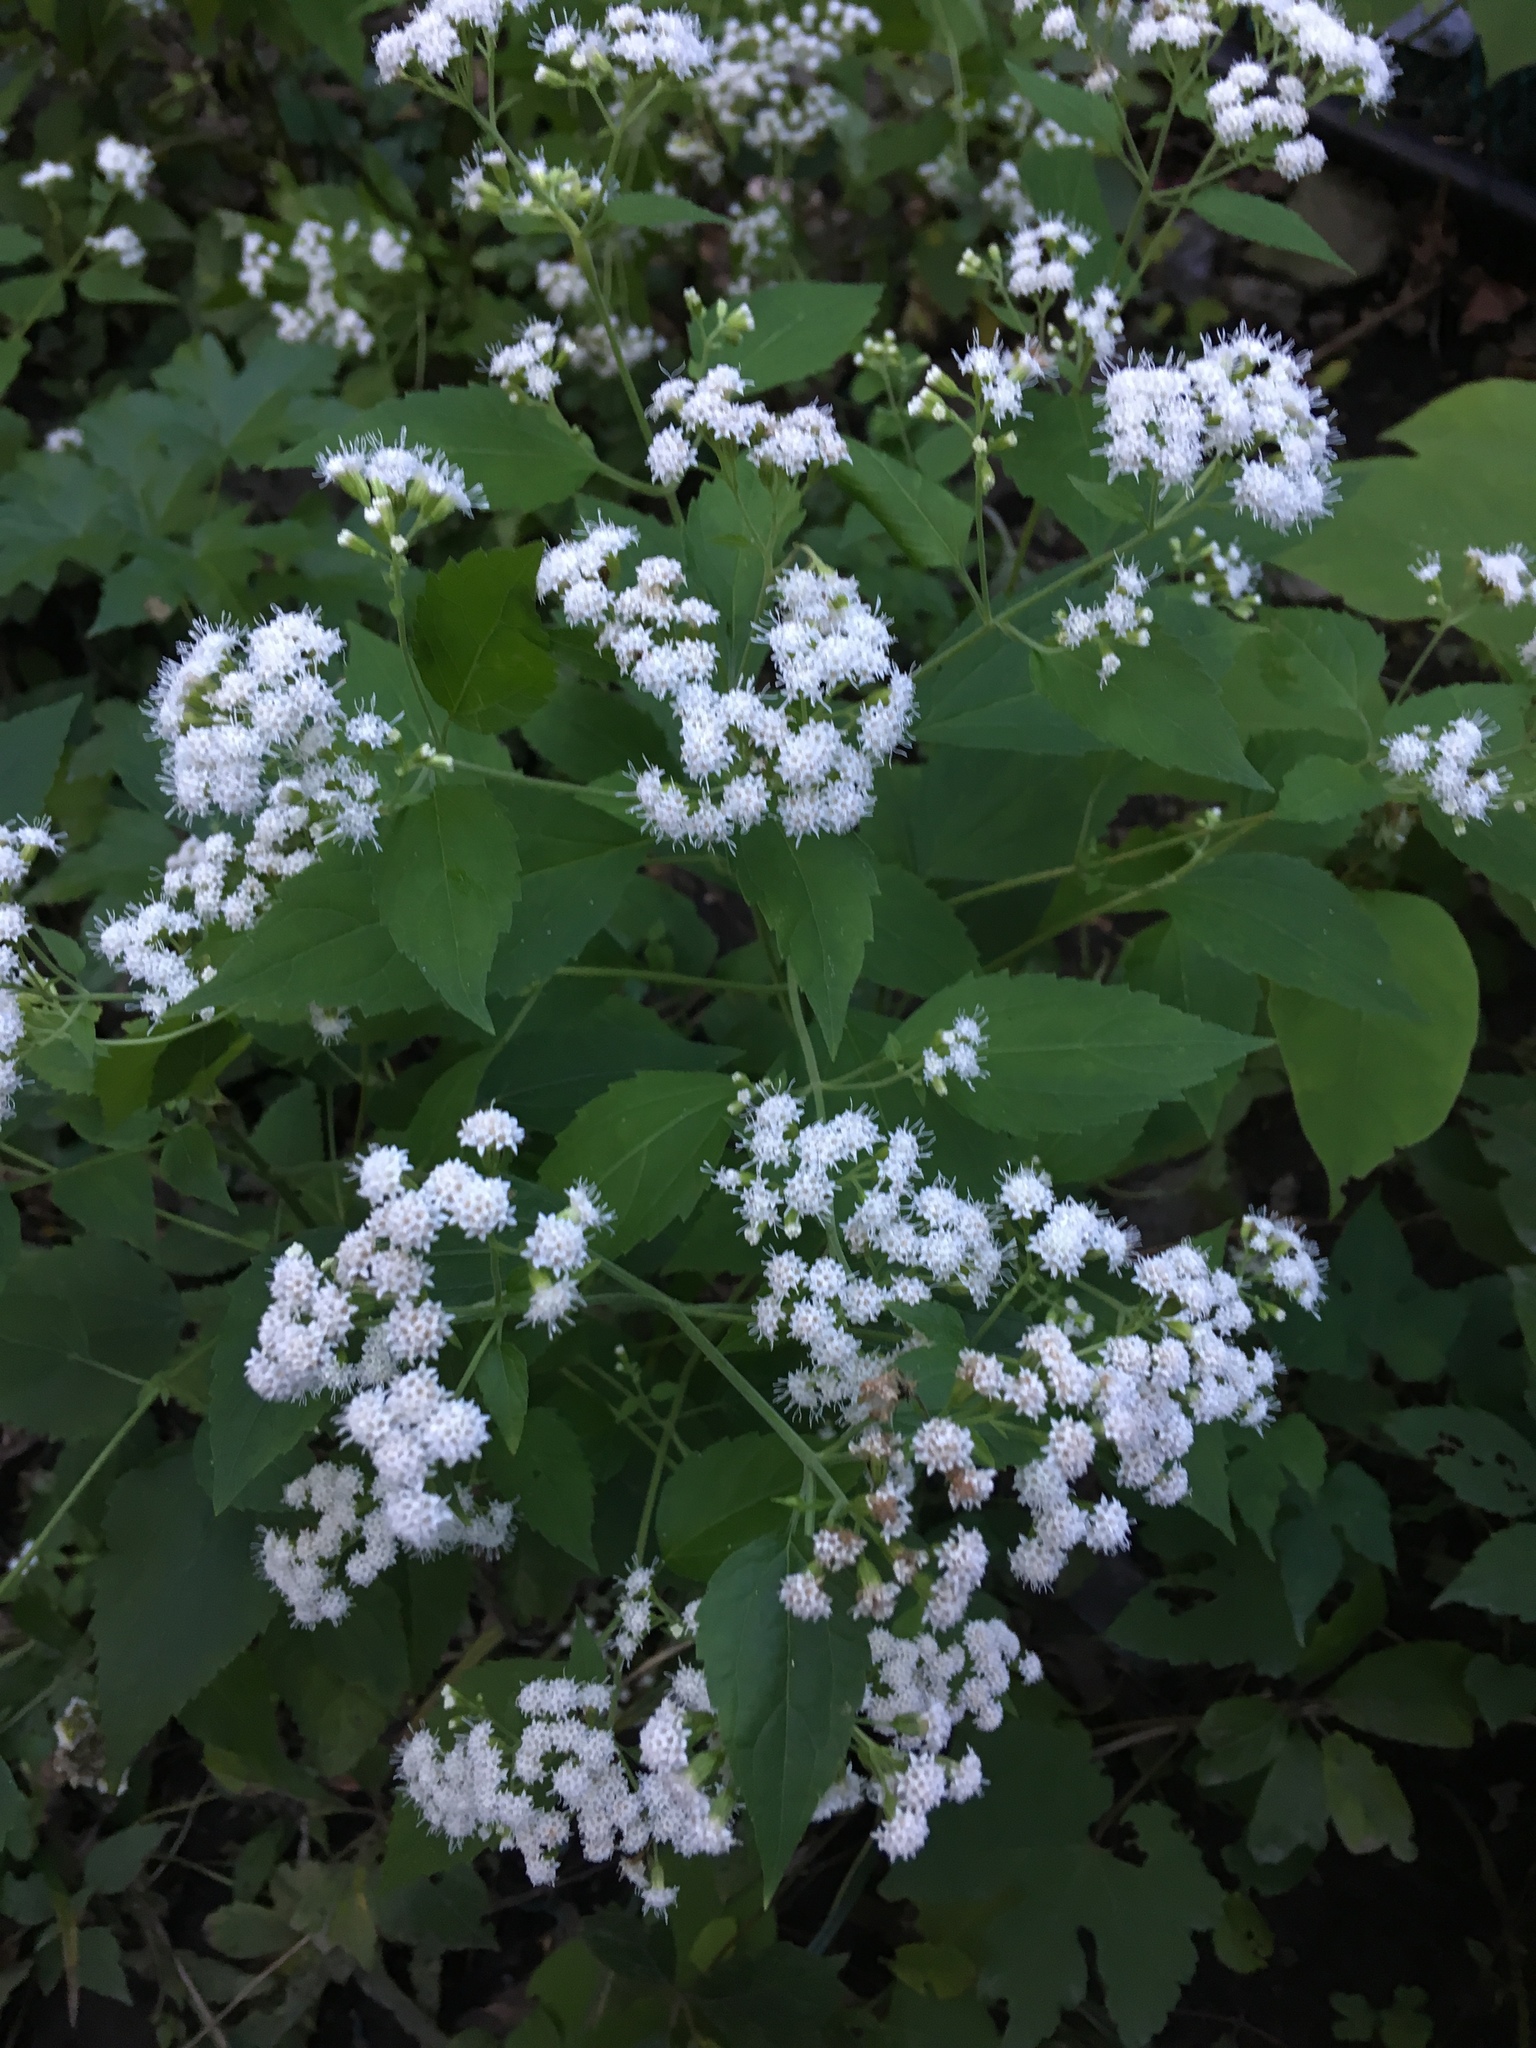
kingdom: Plantae
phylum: Tracheophyta
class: Magnoliopsida
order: Asterales
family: Asteraceae
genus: Ageratina
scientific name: Ageratina altissima
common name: White snakeroot
